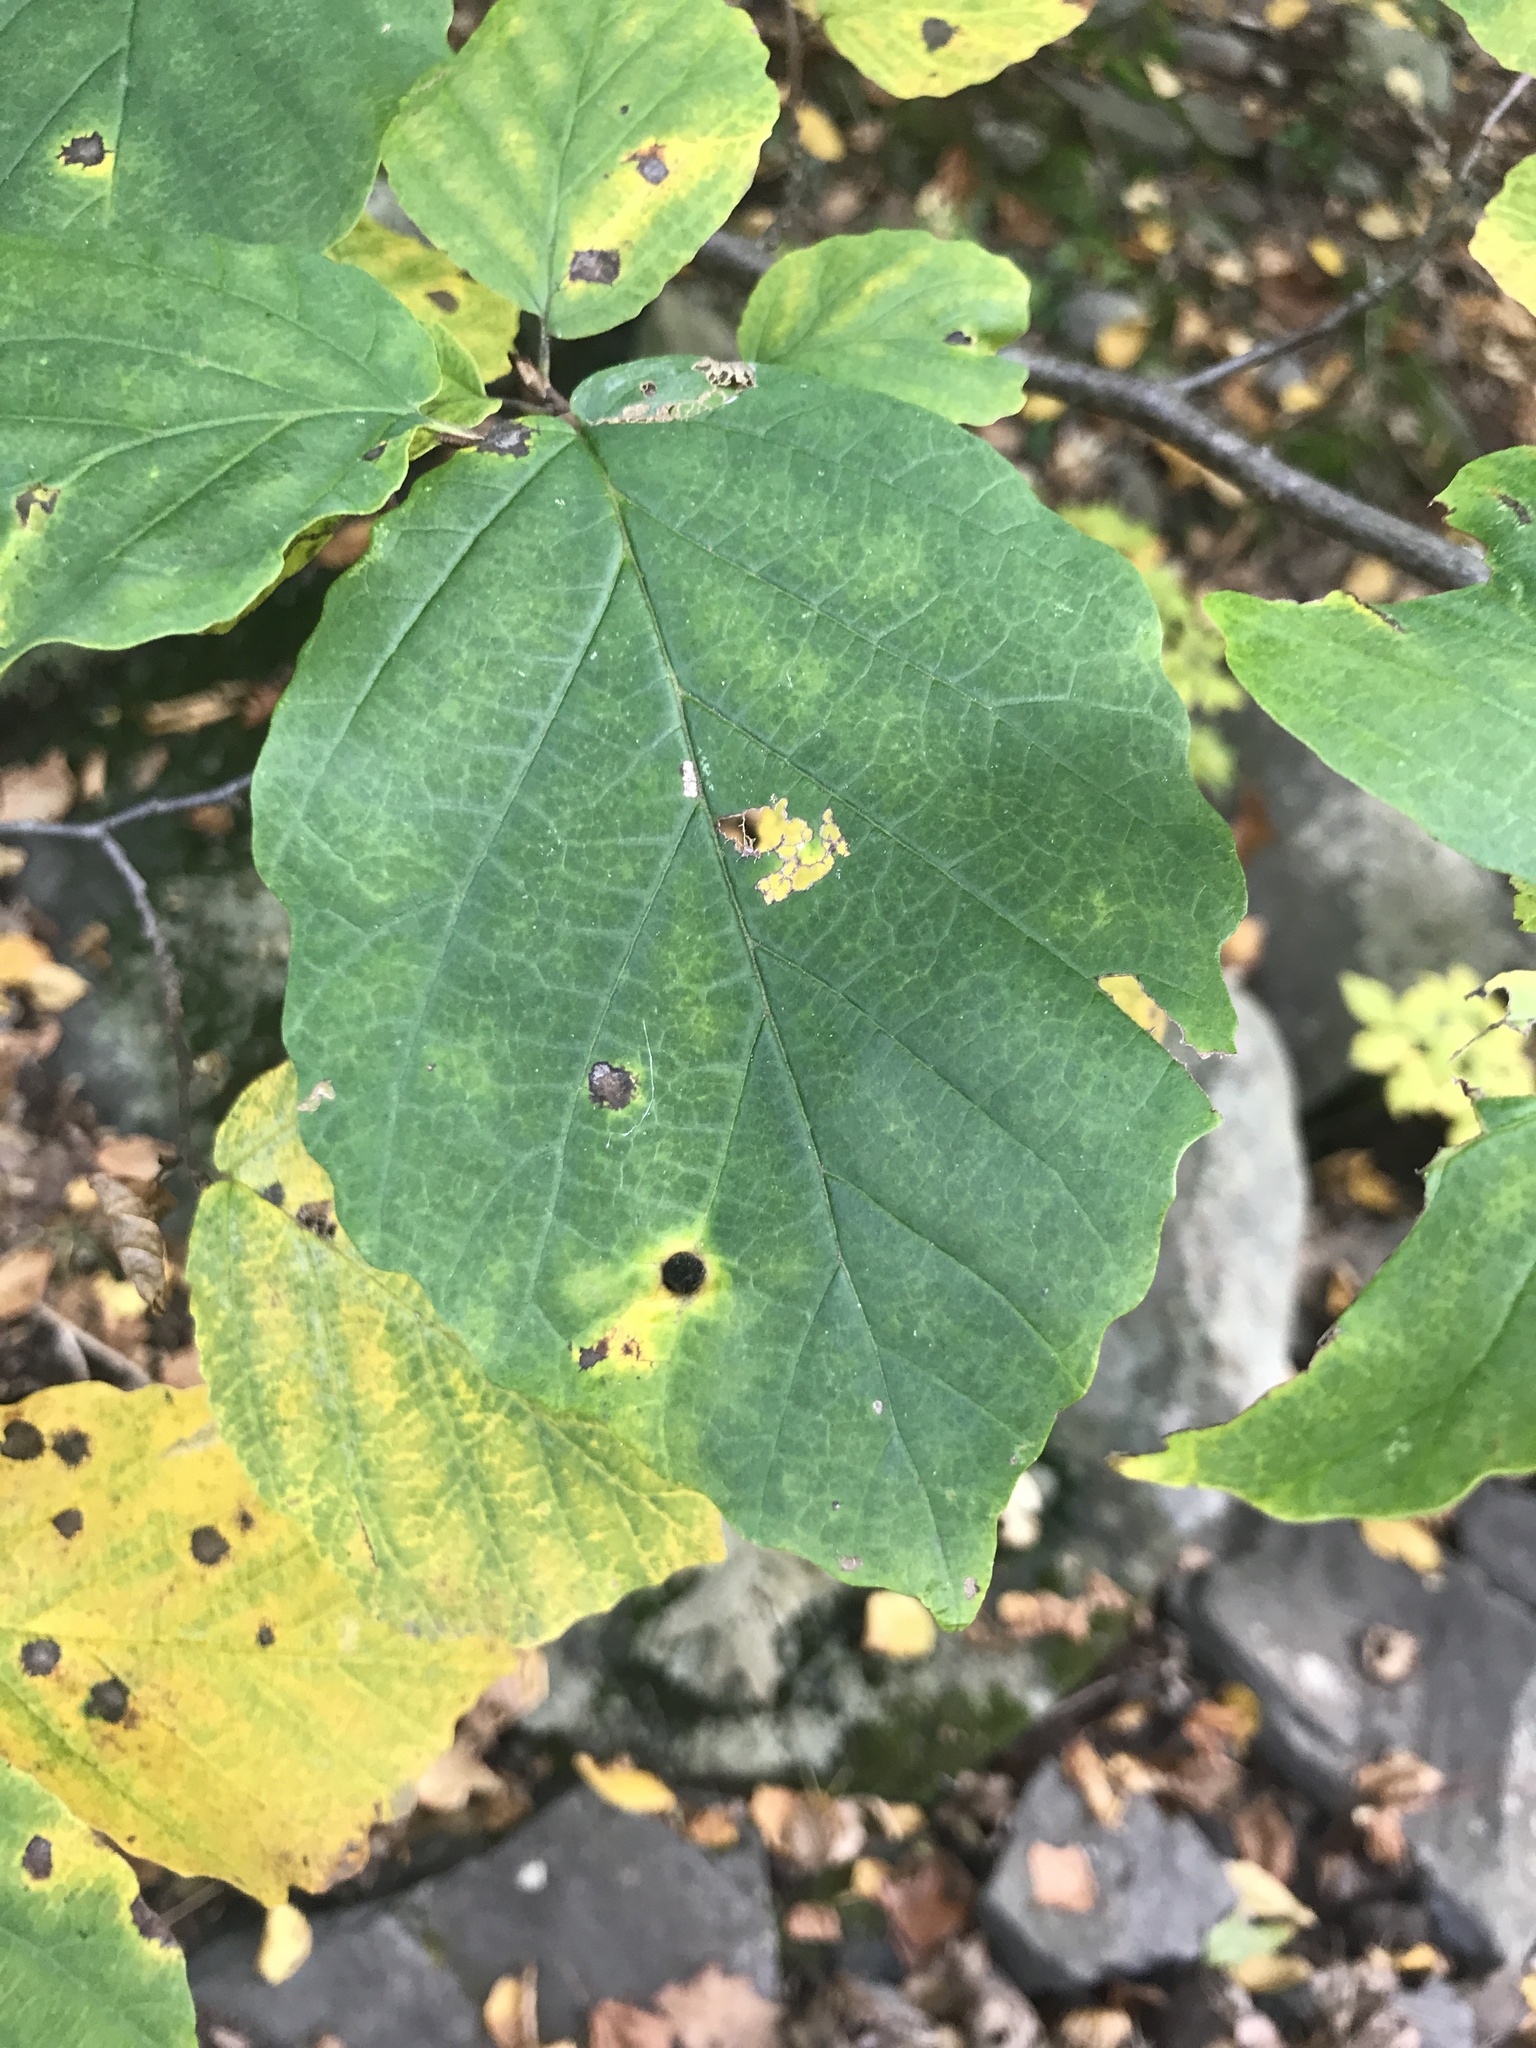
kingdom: Plantae
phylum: Tracheophyta
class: Magnoliopsida
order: Saxifragales
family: Hamamelidaceae
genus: Hamamelis
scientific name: Hamamelis virginiana
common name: Witch-hazel
